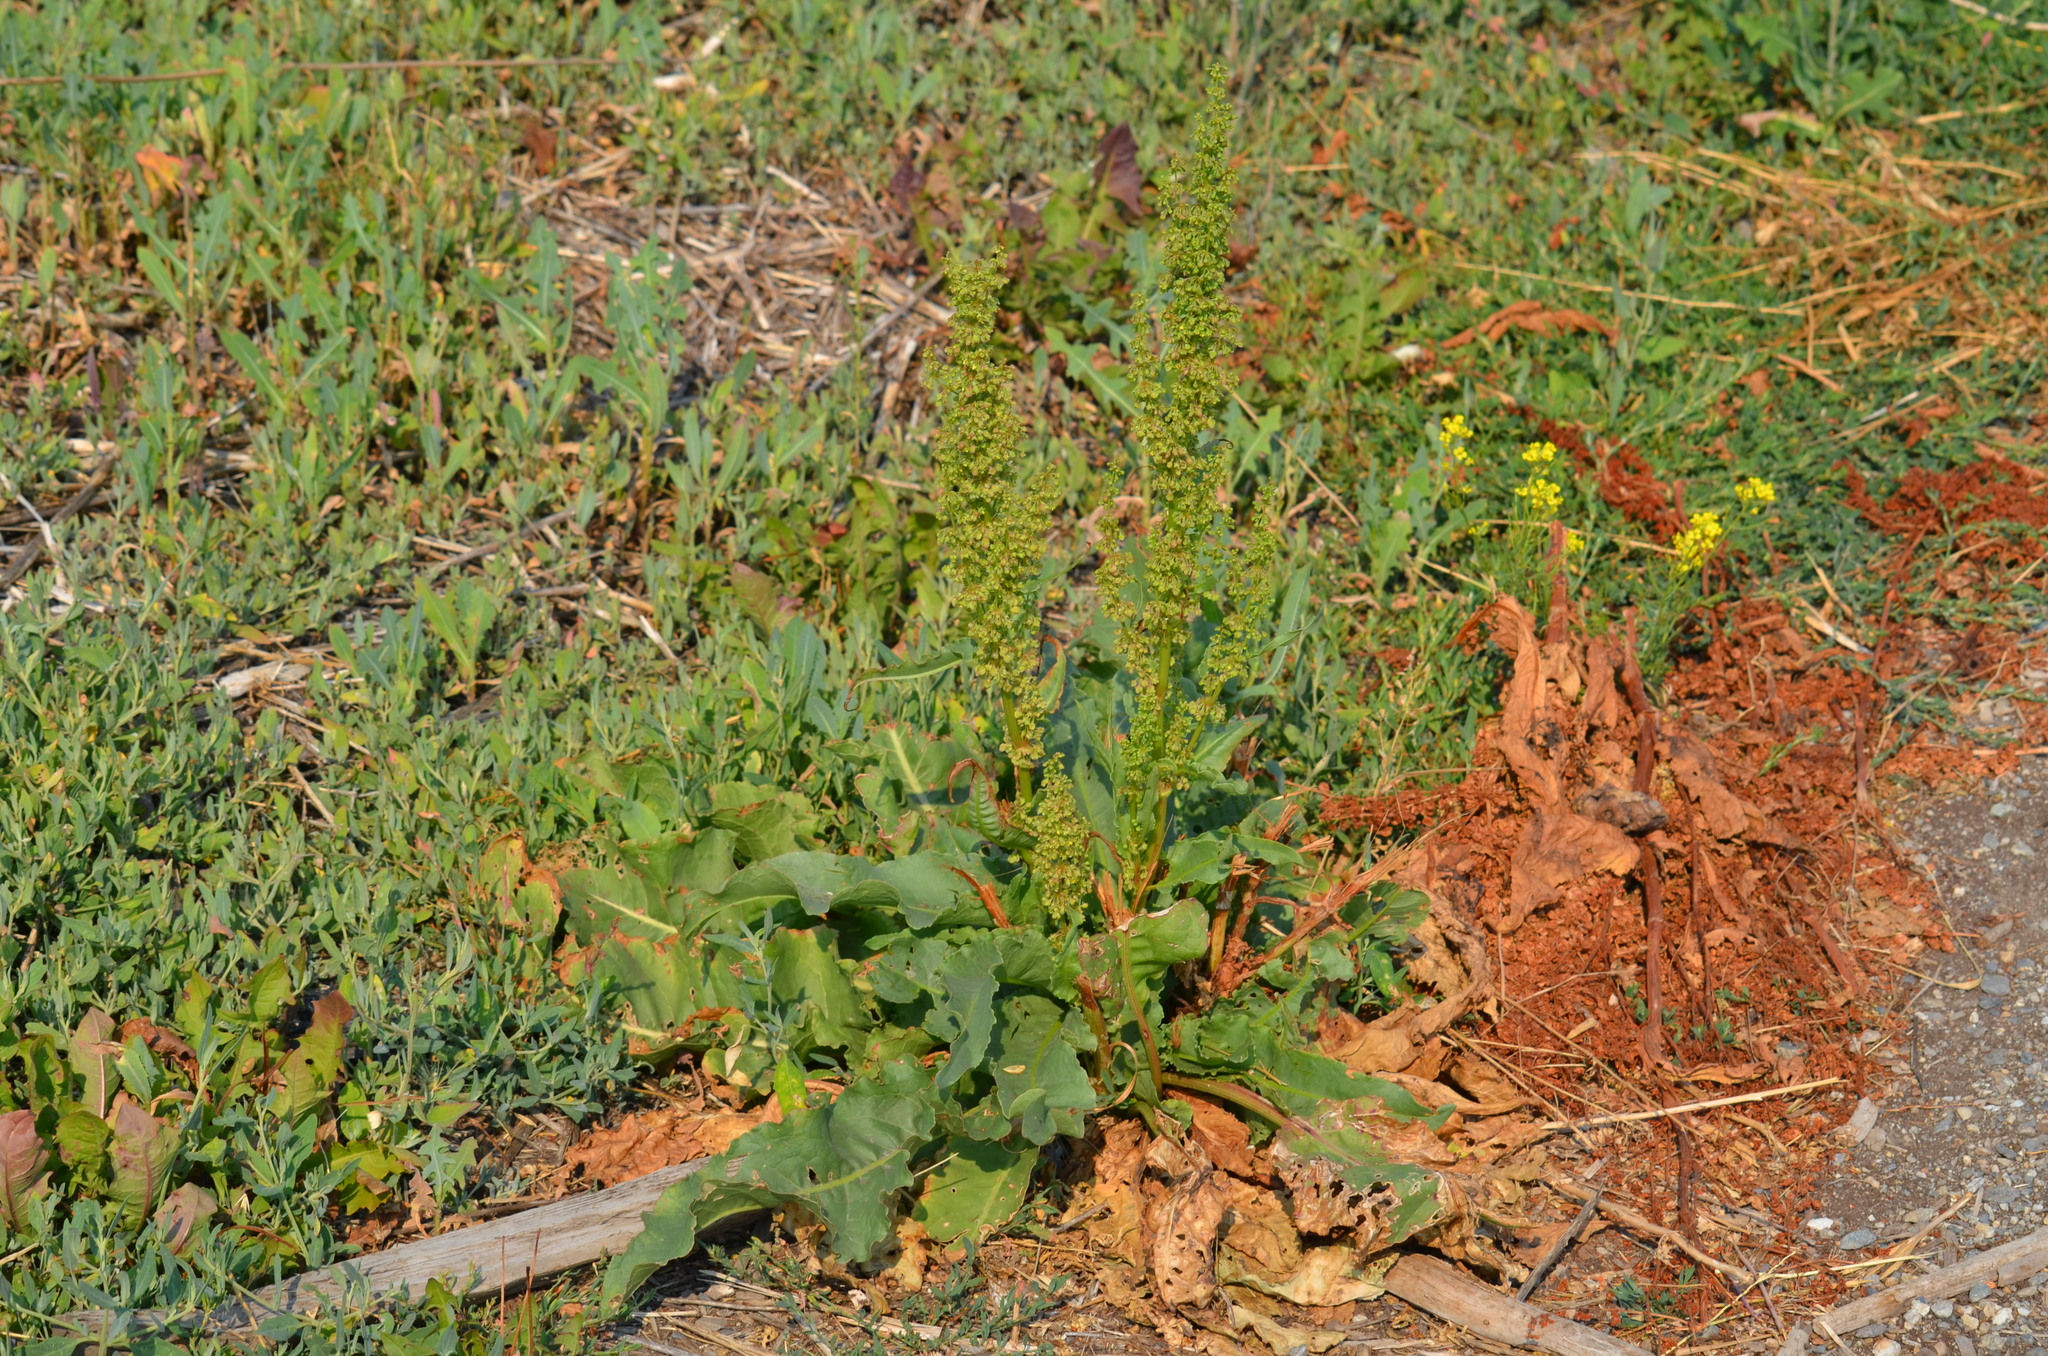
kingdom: Plantae
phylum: Tracheophyta
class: Magnoliopsida
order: Caryophyllales
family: Polygonaceae
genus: Rumex
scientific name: Rumex crispus
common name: Curled dock
